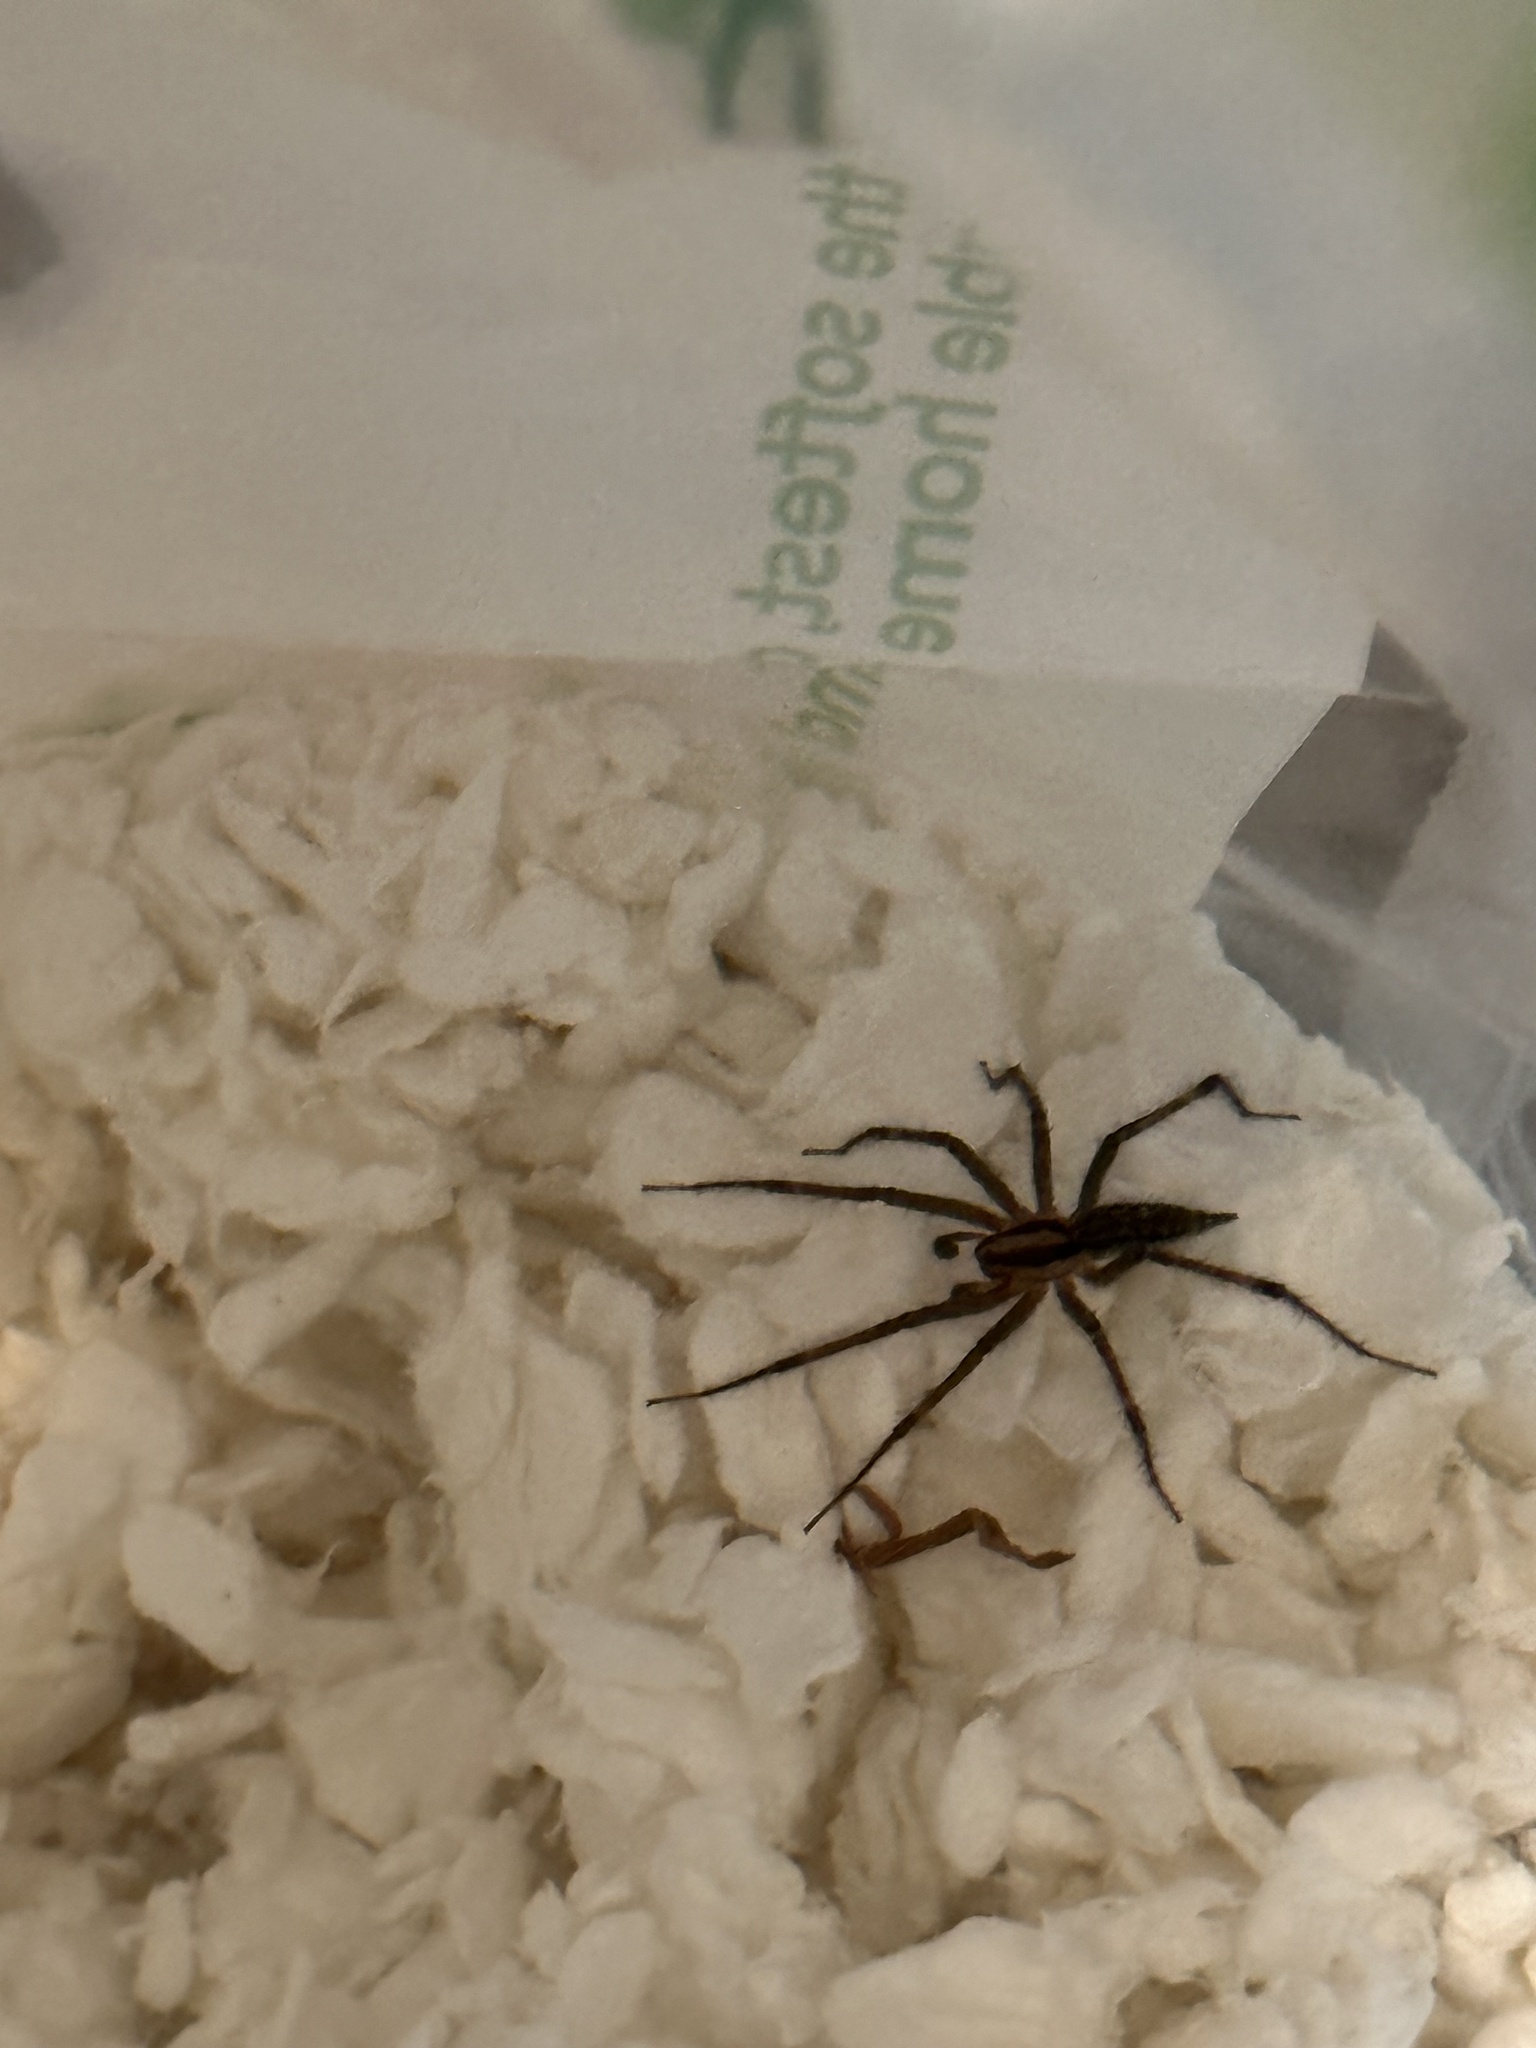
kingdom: Animalia
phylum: Arthropoda
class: Arachnida
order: Araneae
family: Agelenidae
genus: Agelenopsis
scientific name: Agelenopsis
